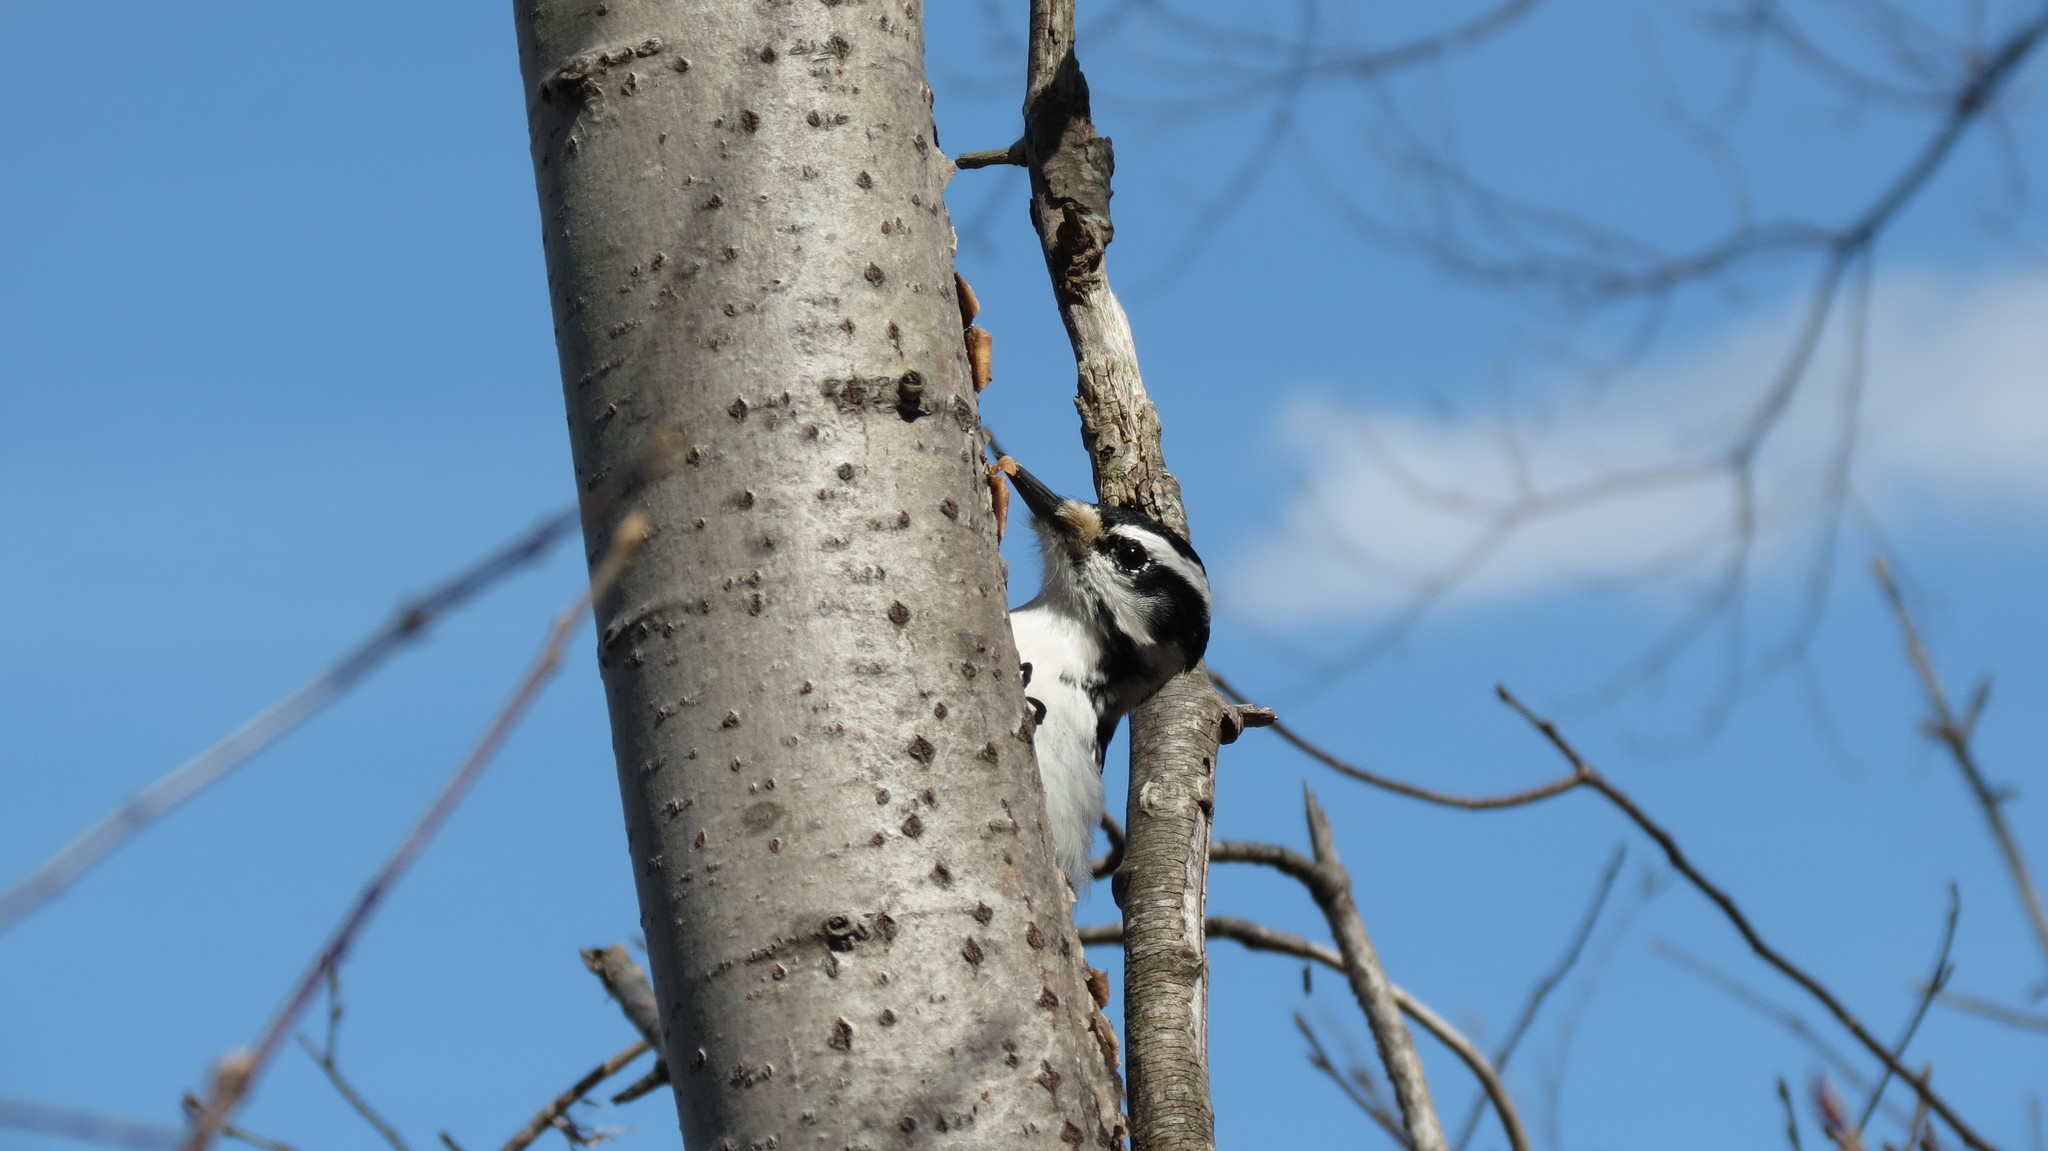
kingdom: Animalia
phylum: Chordata
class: Aves
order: Piciformes
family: Picidae
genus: Leuconotopicus
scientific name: Leuconotopicus villosus
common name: Hairy woodpecker
